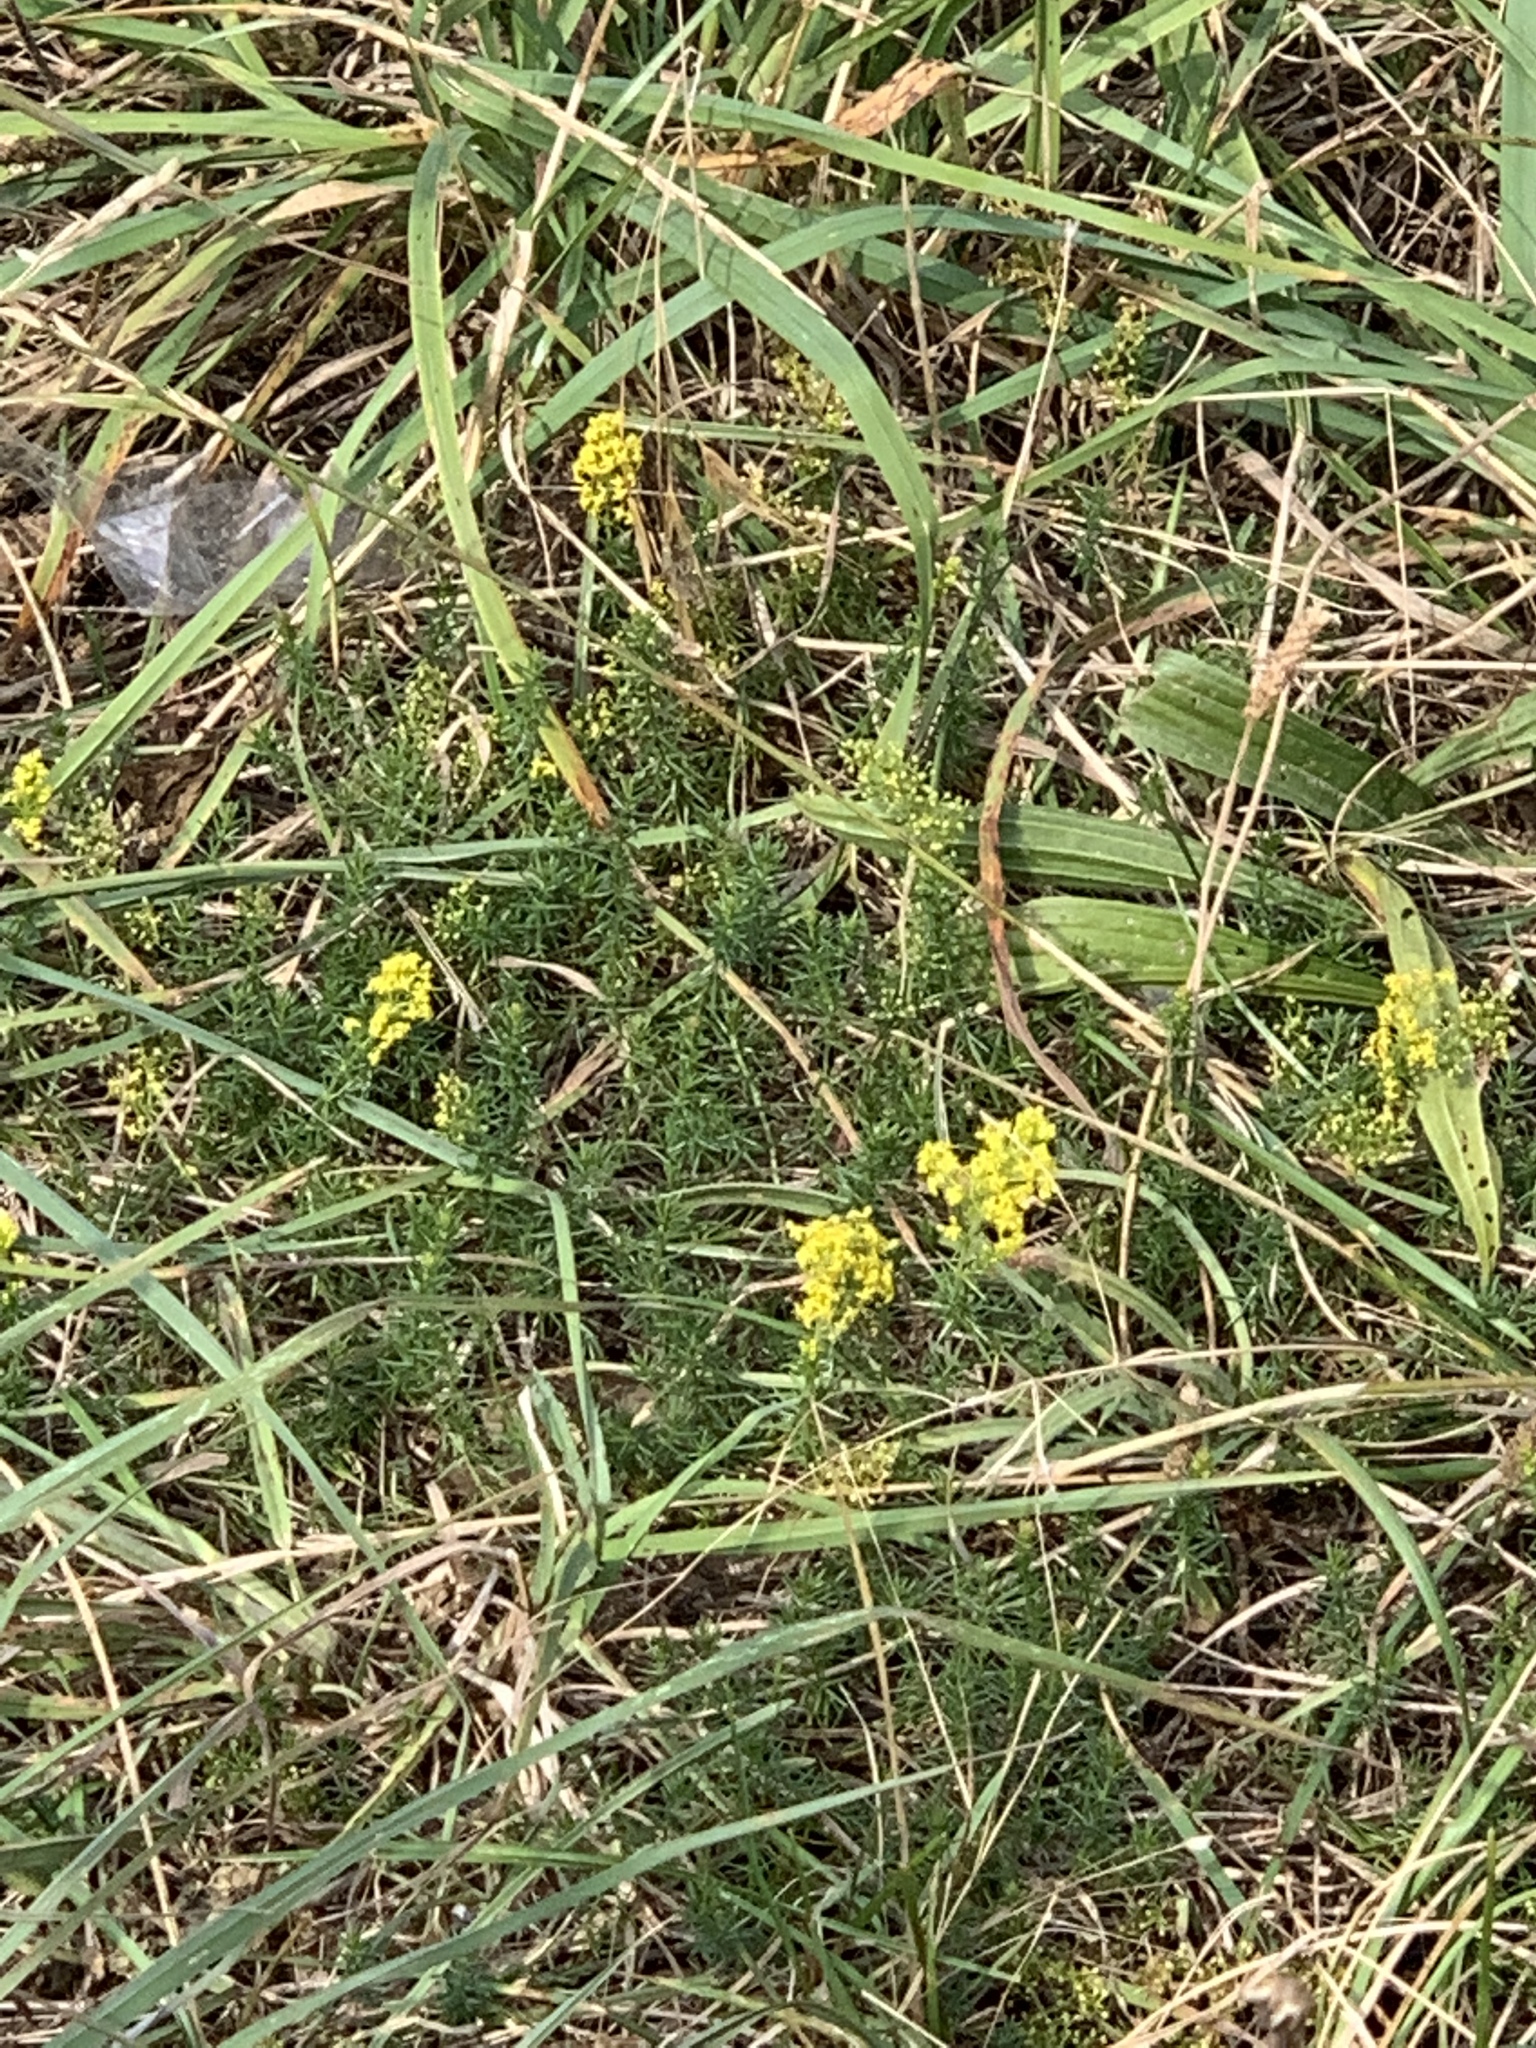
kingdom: Plantae
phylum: Tracheophyta
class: Magnoliopsida
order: Gentianales
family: Rubiaceae
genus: Galium
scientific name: Galium verum
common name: Lady's bedstraw
